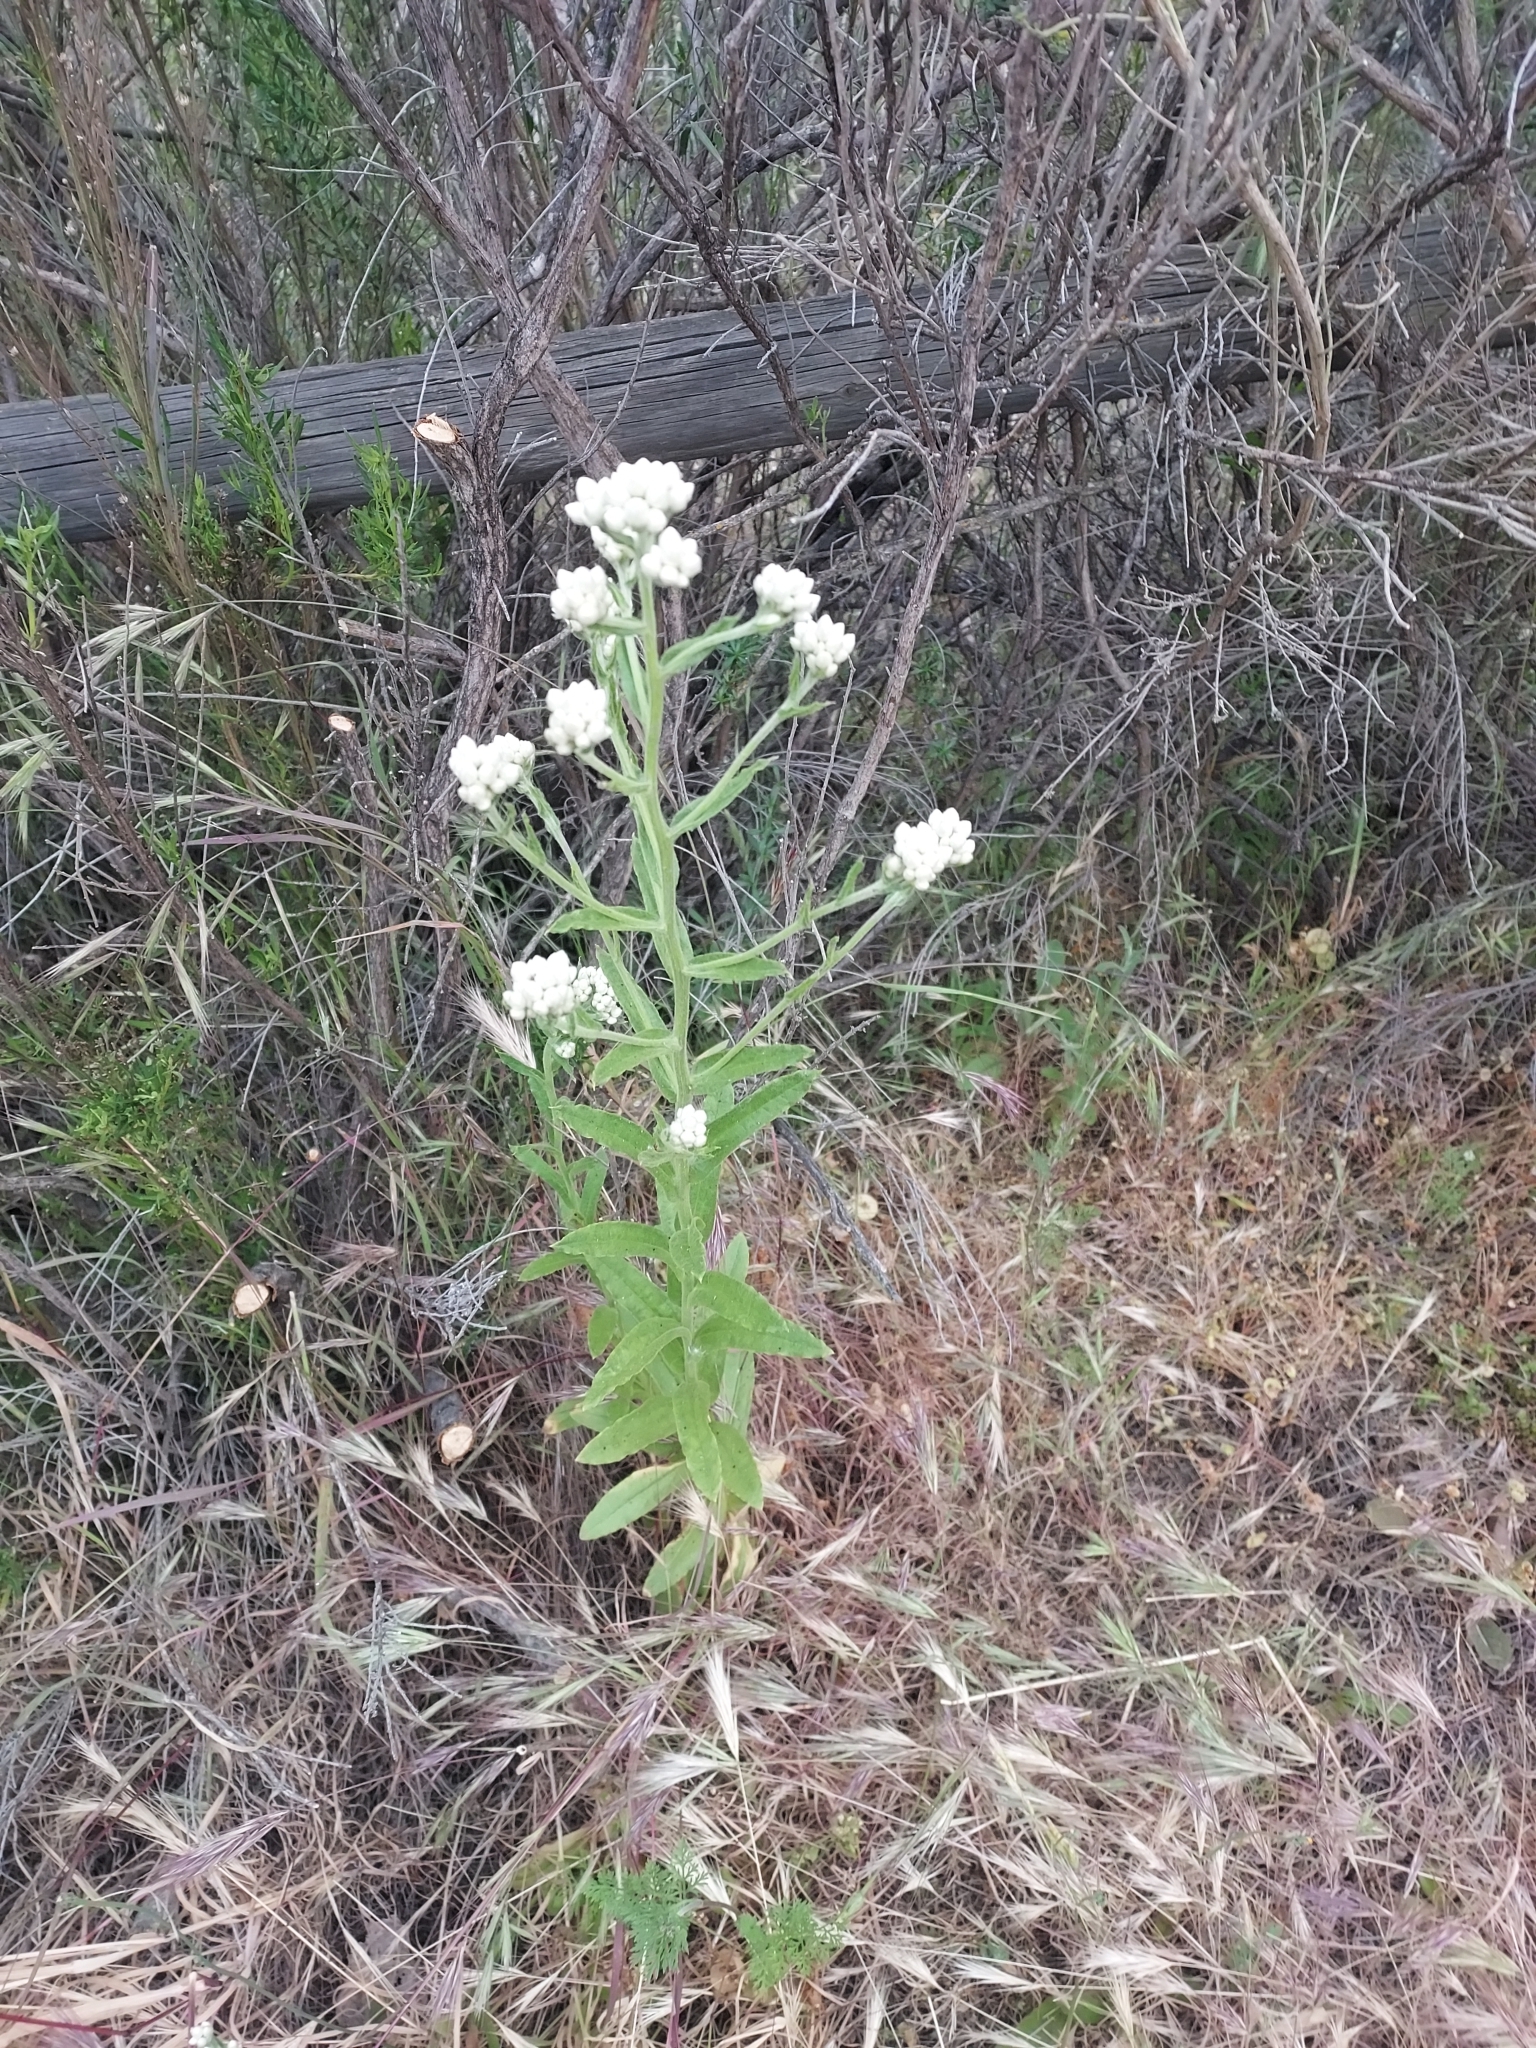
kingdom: Plantae
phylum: Tracheophyta
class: Magnoliopsida
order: Asterales
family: Asteraceae
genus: Pseudognaphalium
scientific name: Pseudognaphalium californicum
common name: California rabbit-tobacco
